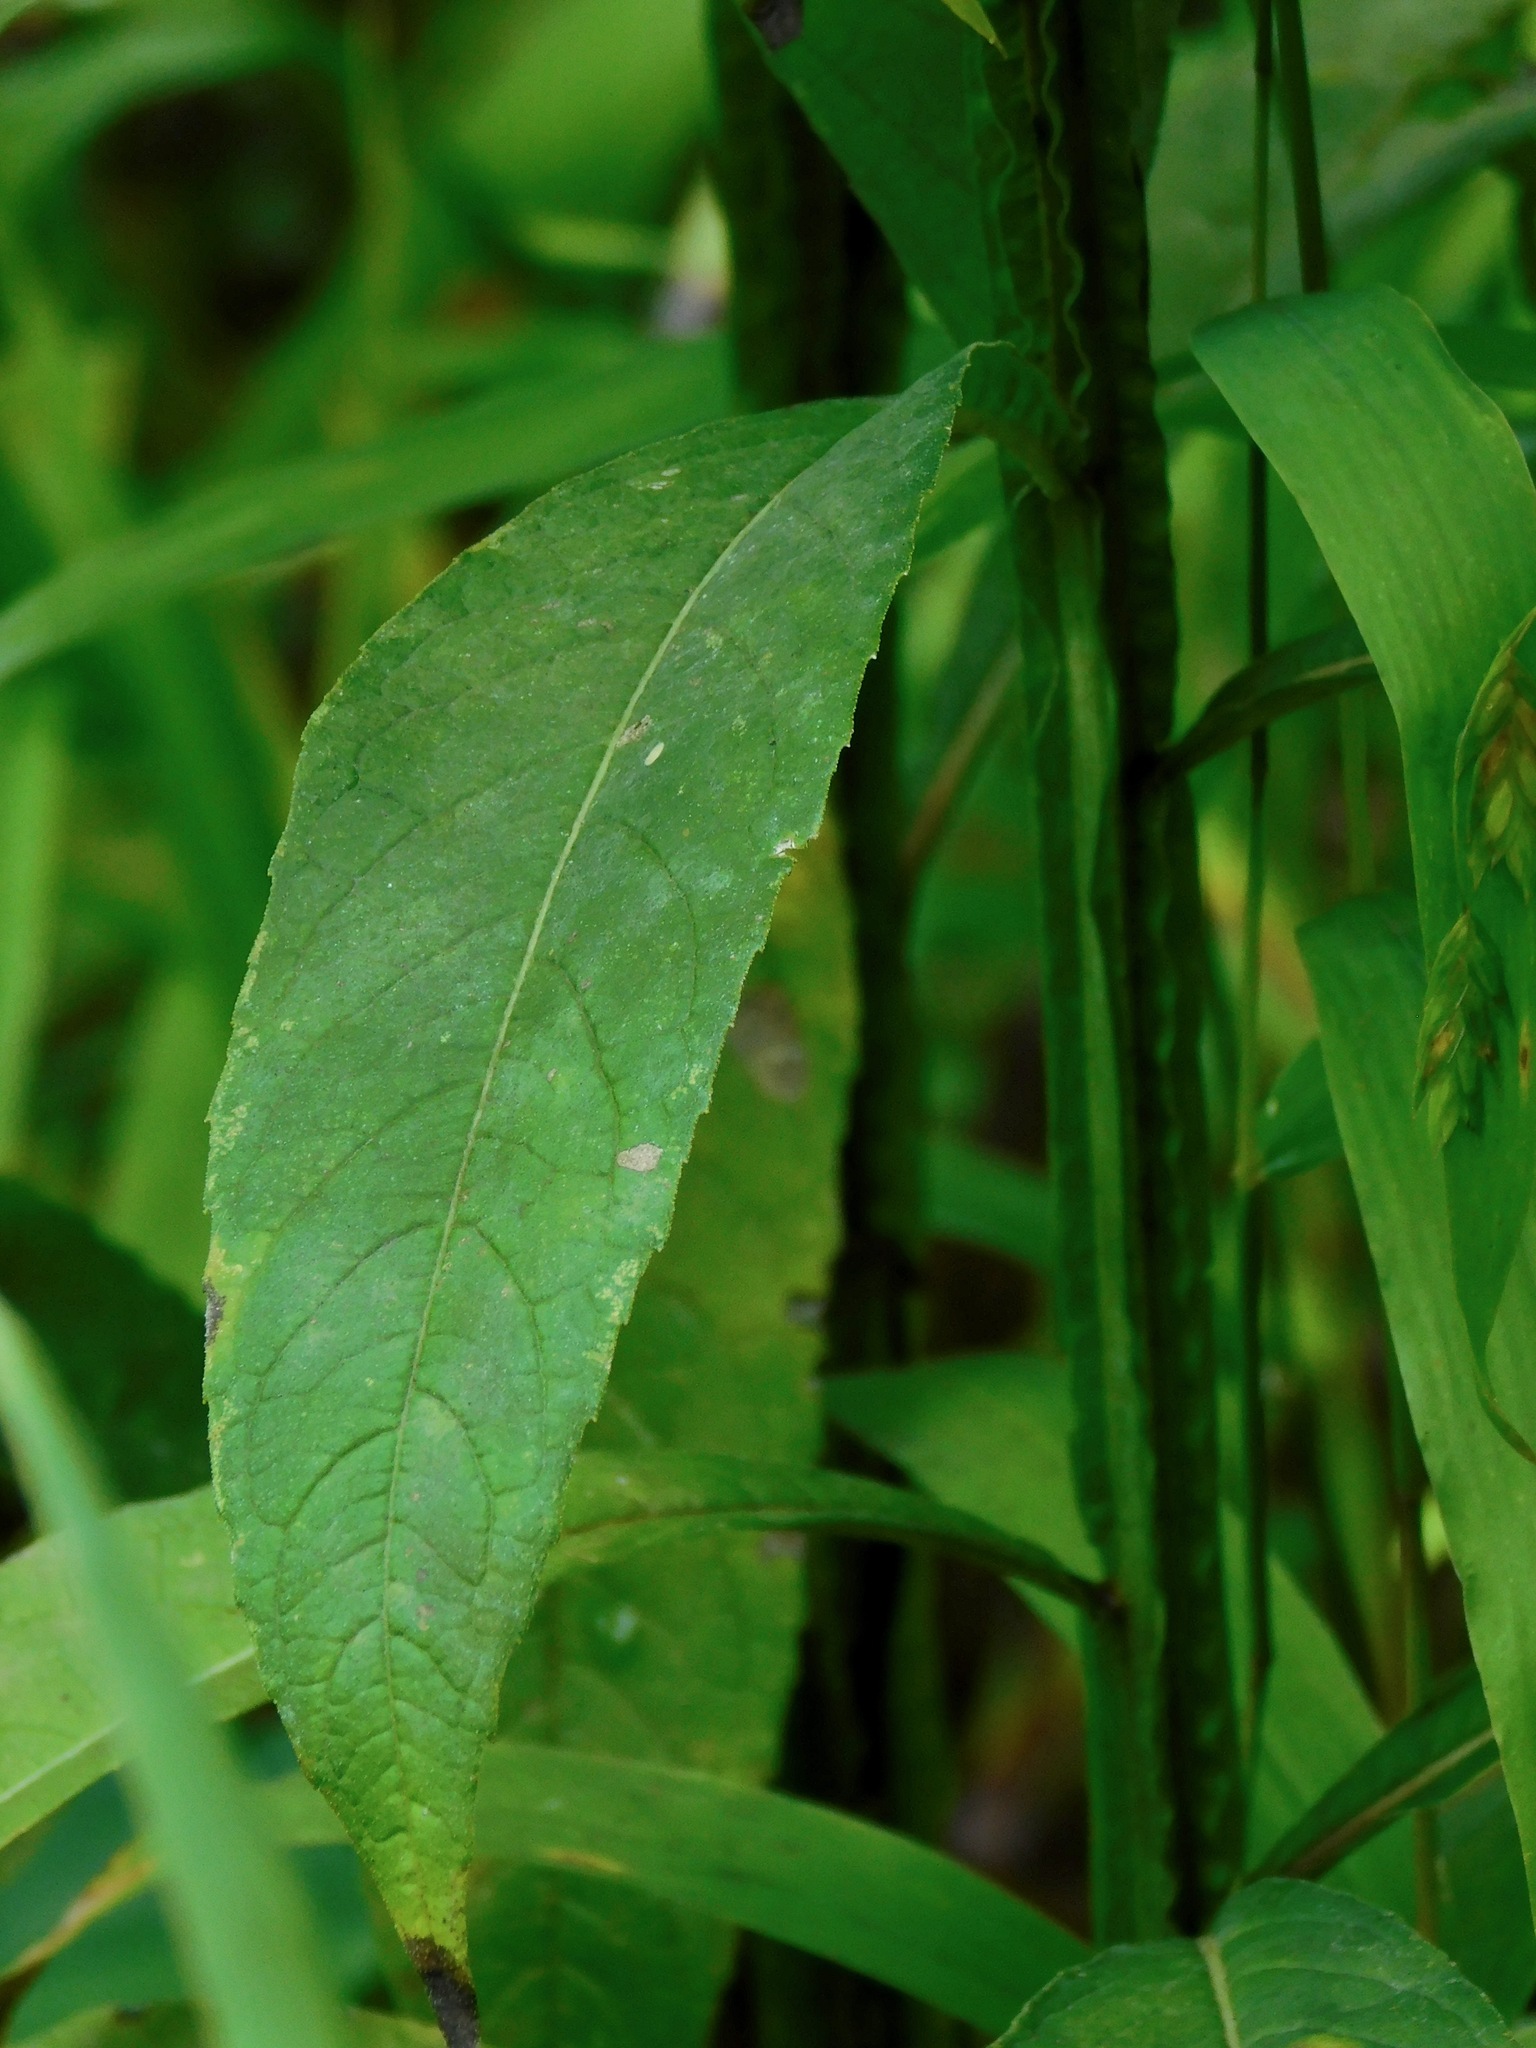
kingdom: Plantae
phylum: Tracheophyta
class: Magnoliopsida
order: Asterales
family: Asteraceae
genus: Verbesina
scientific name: Verbesina alternifolia
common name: Wingstem
